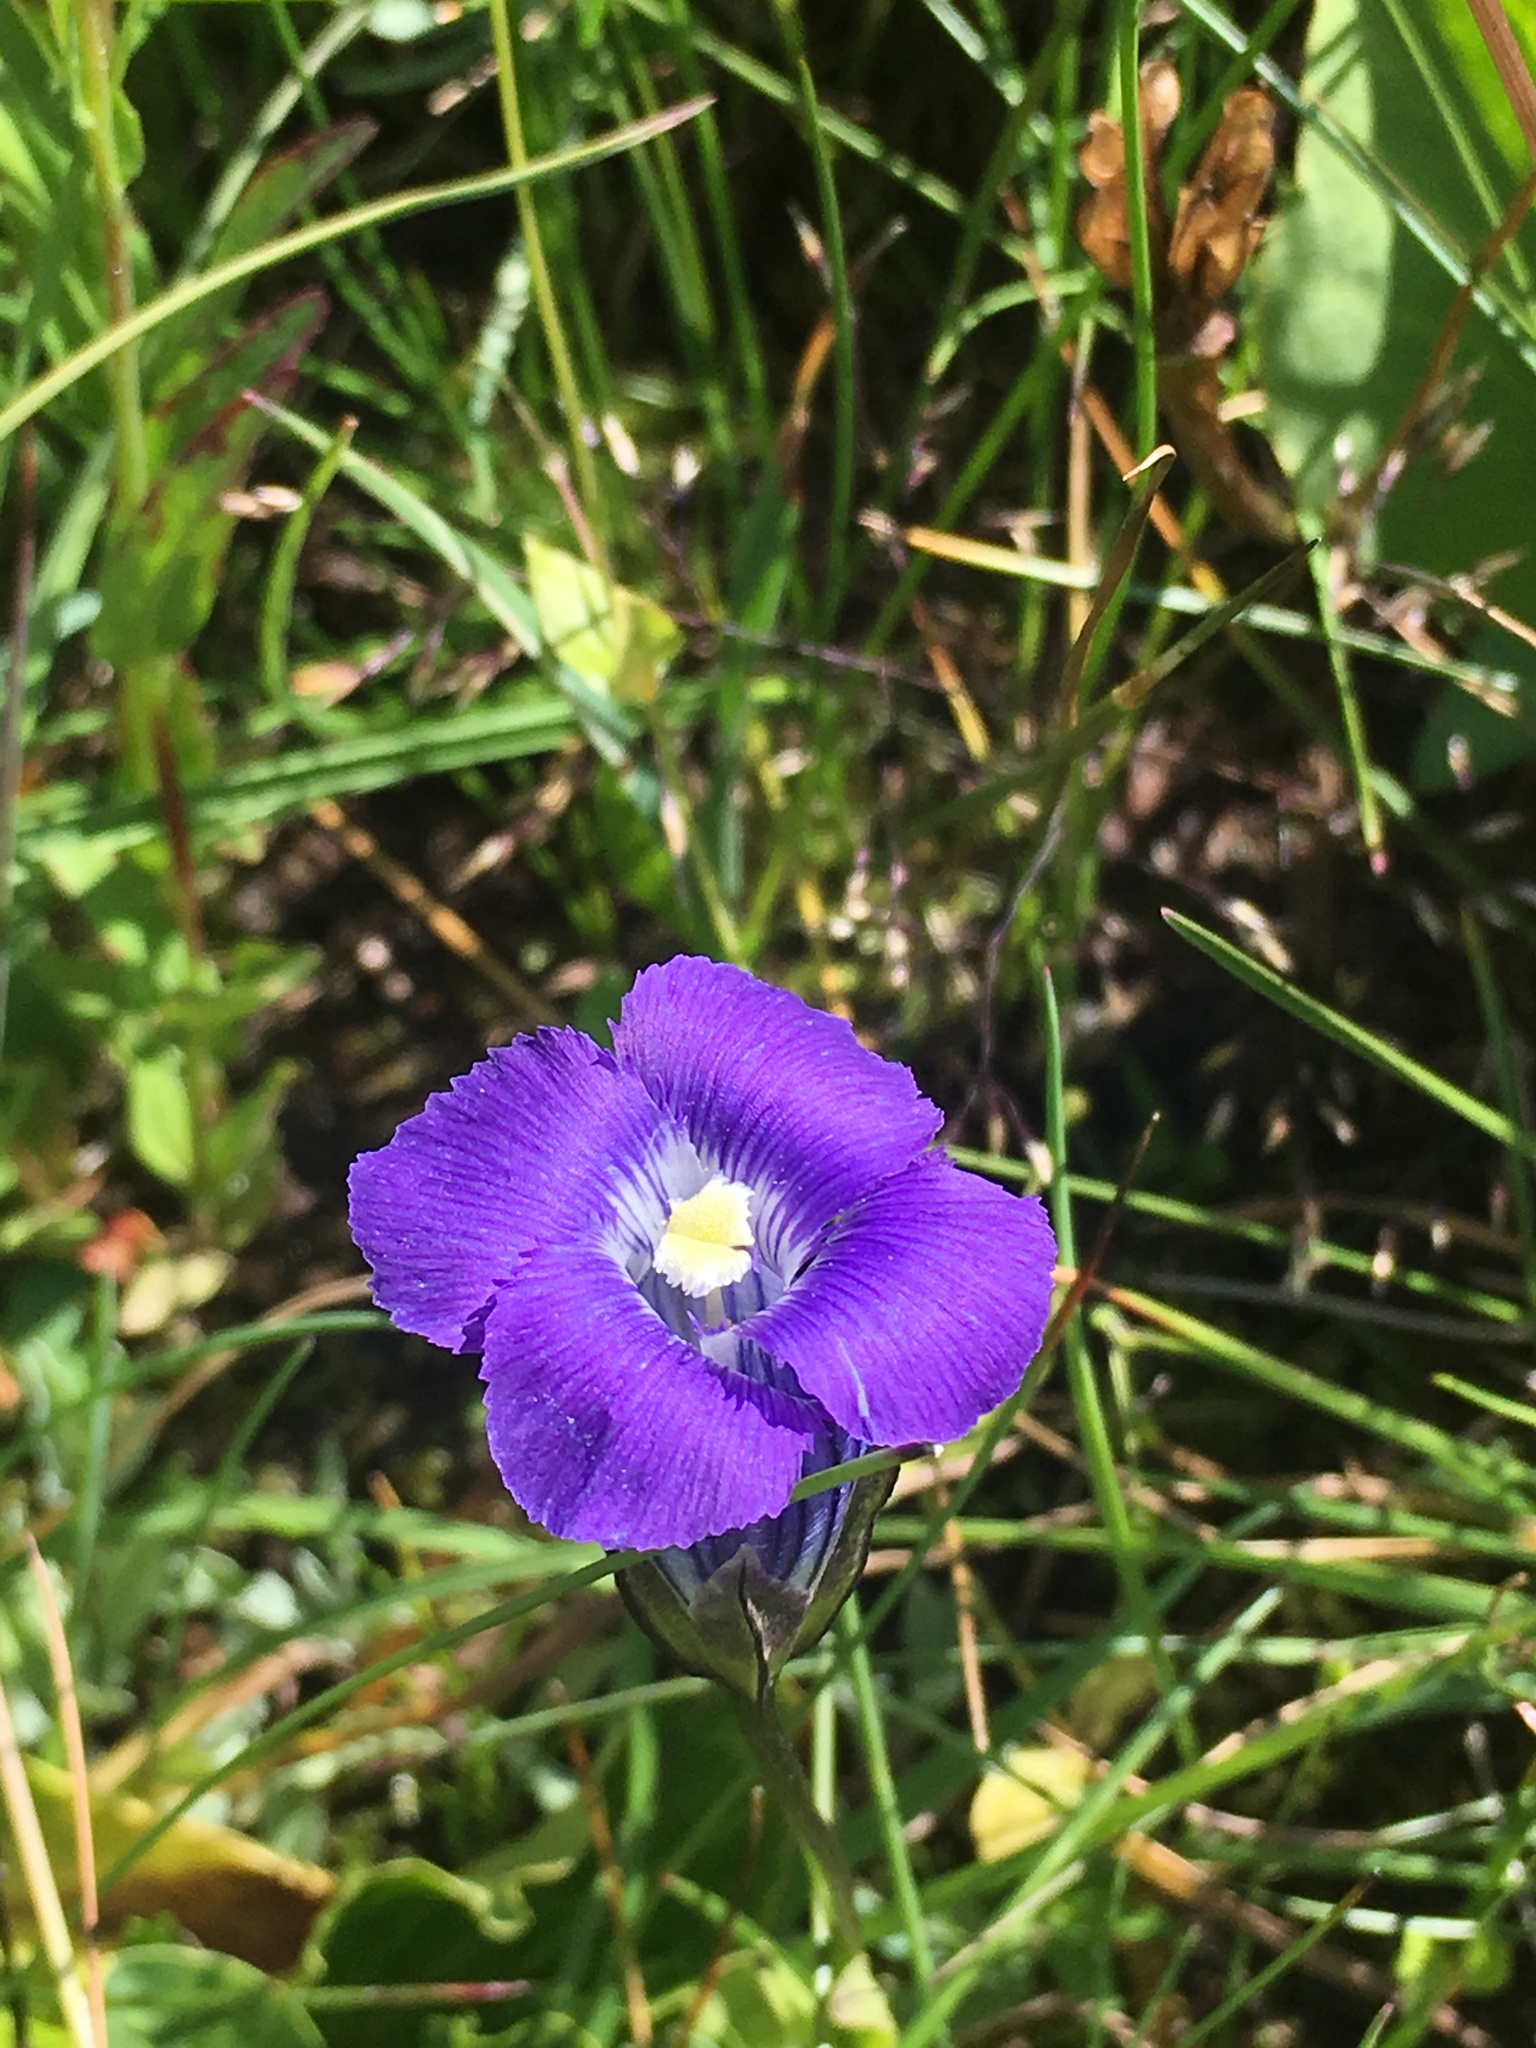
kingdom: Plantae
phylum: Tracheophyta
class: Magnoliopsida
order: Gentianales
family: Gentianaceae
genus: Gentianopsis
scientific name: Gentianopsis thermalis
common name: Rocky mountain fringed-gentian
